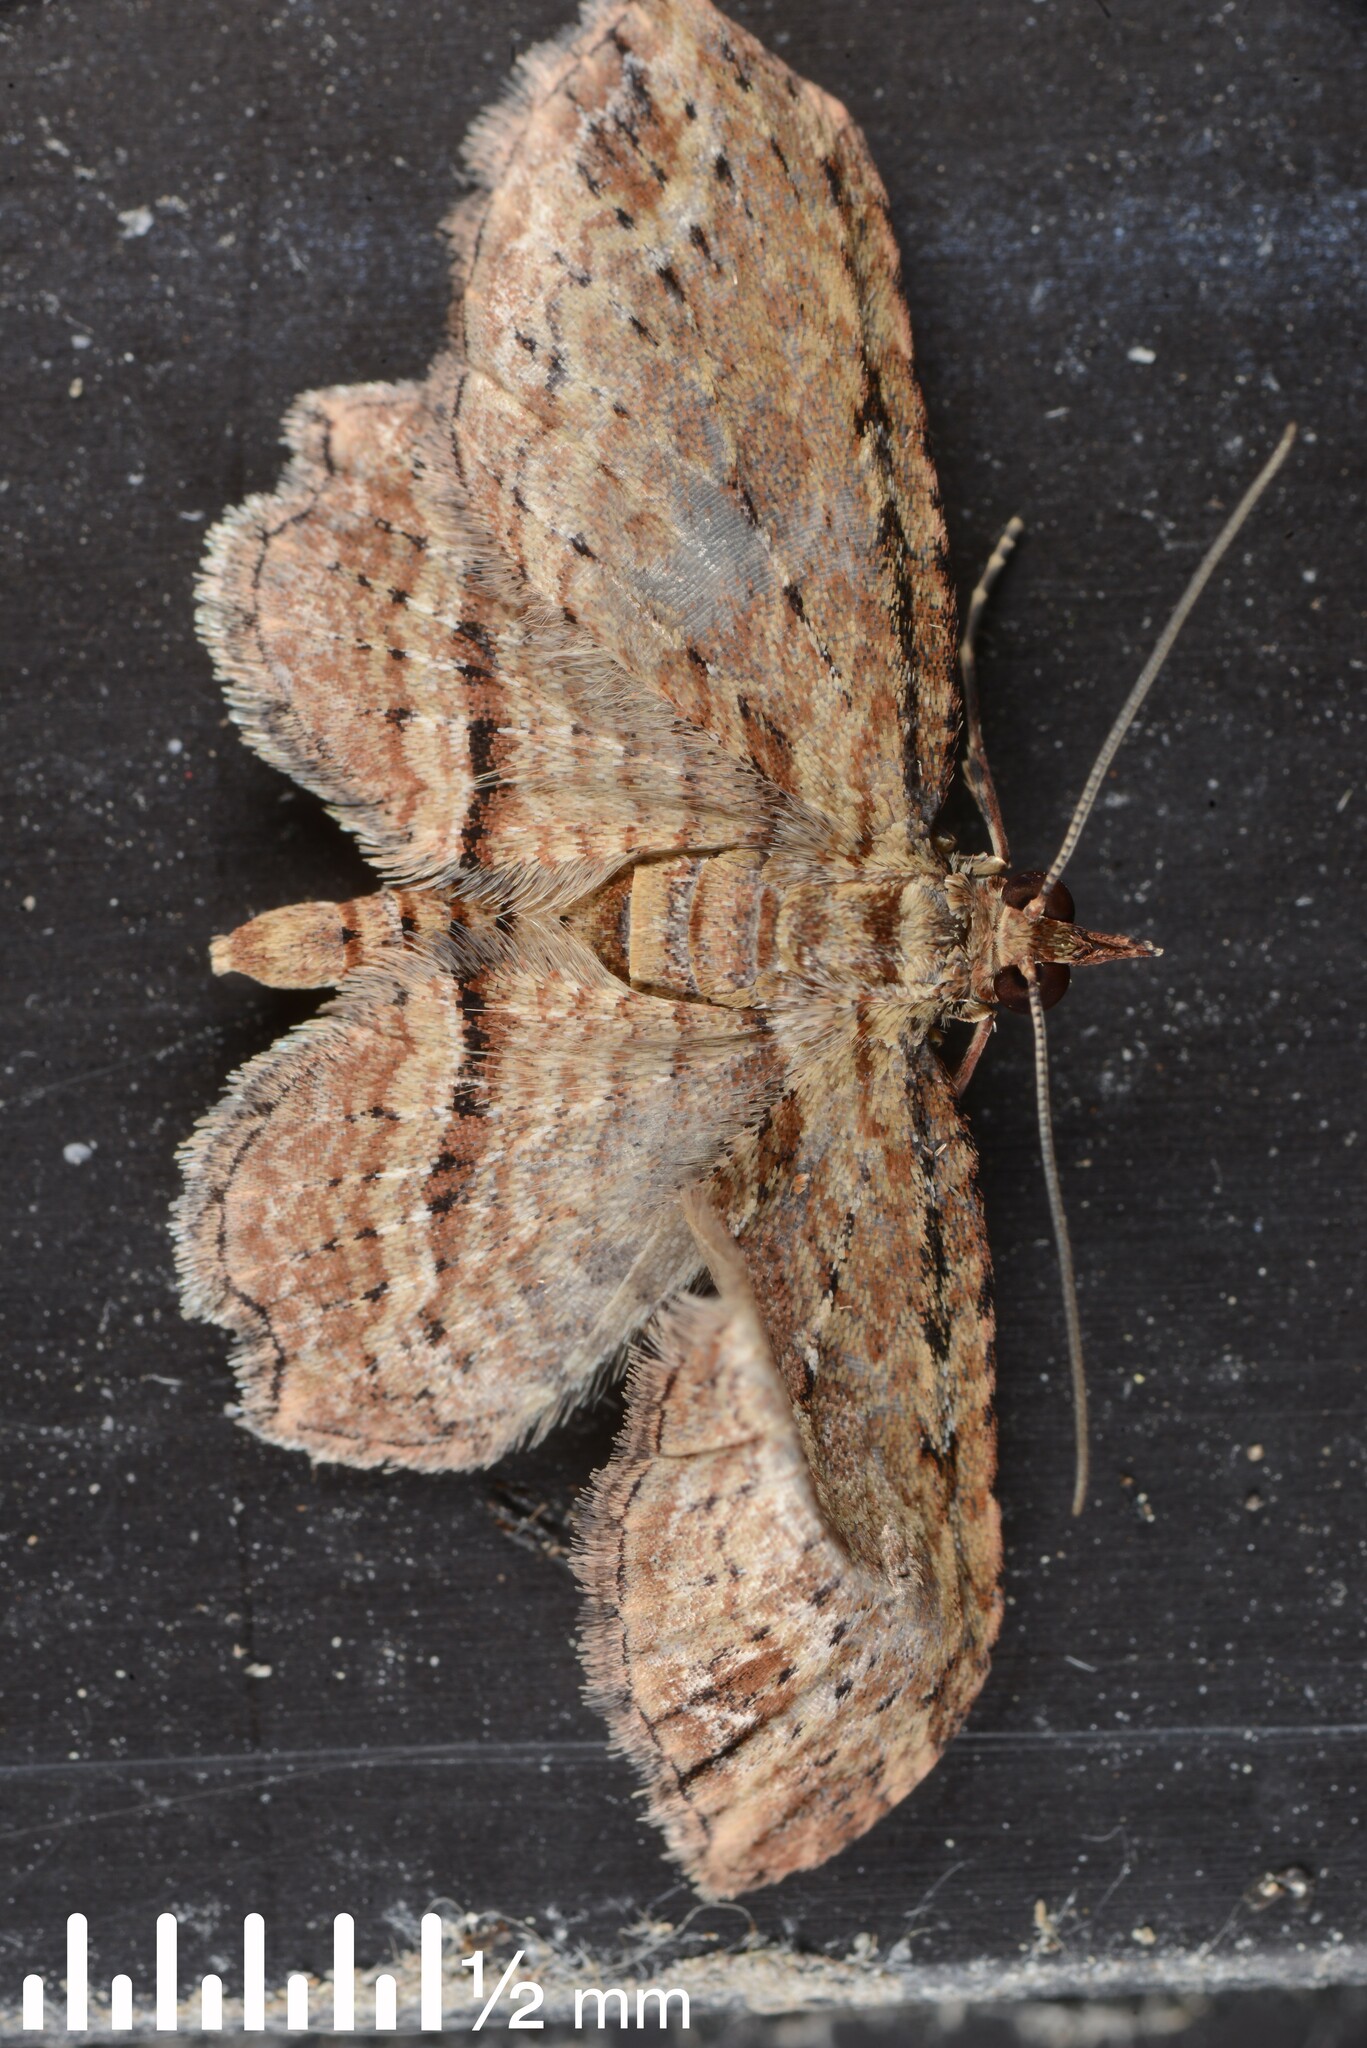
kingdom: Animalia
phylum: Arthropoda
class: Insecta
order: Lepidoptera
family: Geometridae
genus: Chloroclystis
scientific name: Chloroclystis filata
